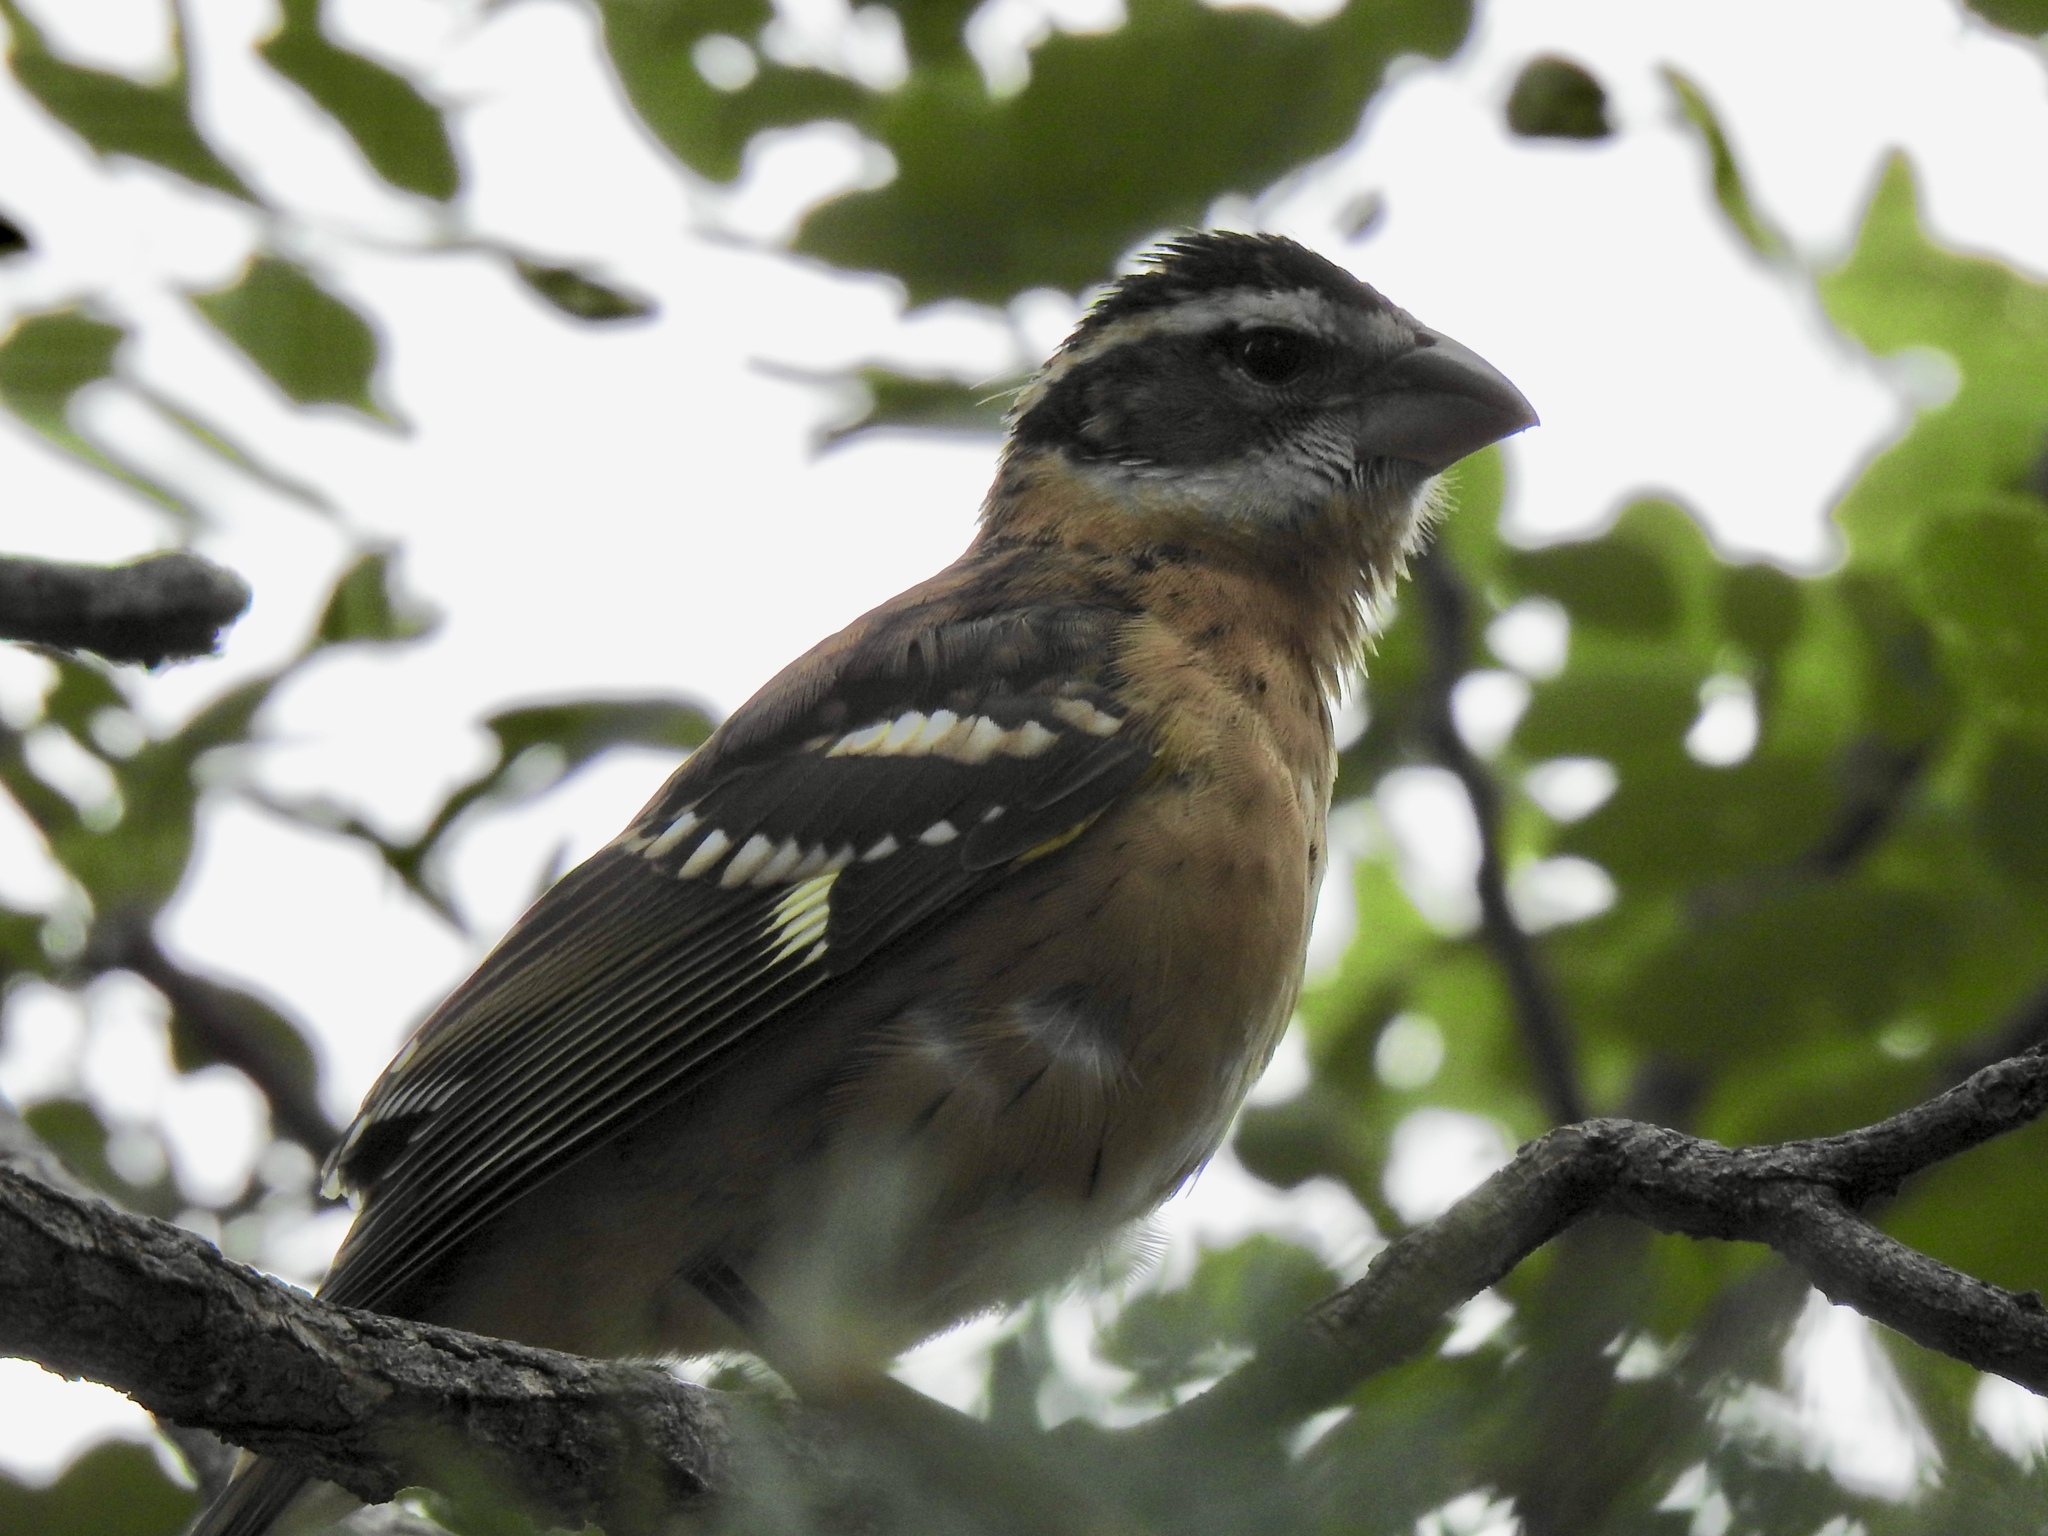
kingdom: Animalia
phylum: Chordata
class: Aves
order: Passeriformes
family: Cardinalidae
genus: Pheucticus
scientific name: Pheucticus melanocephalus
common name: Black-headed grosbeak
